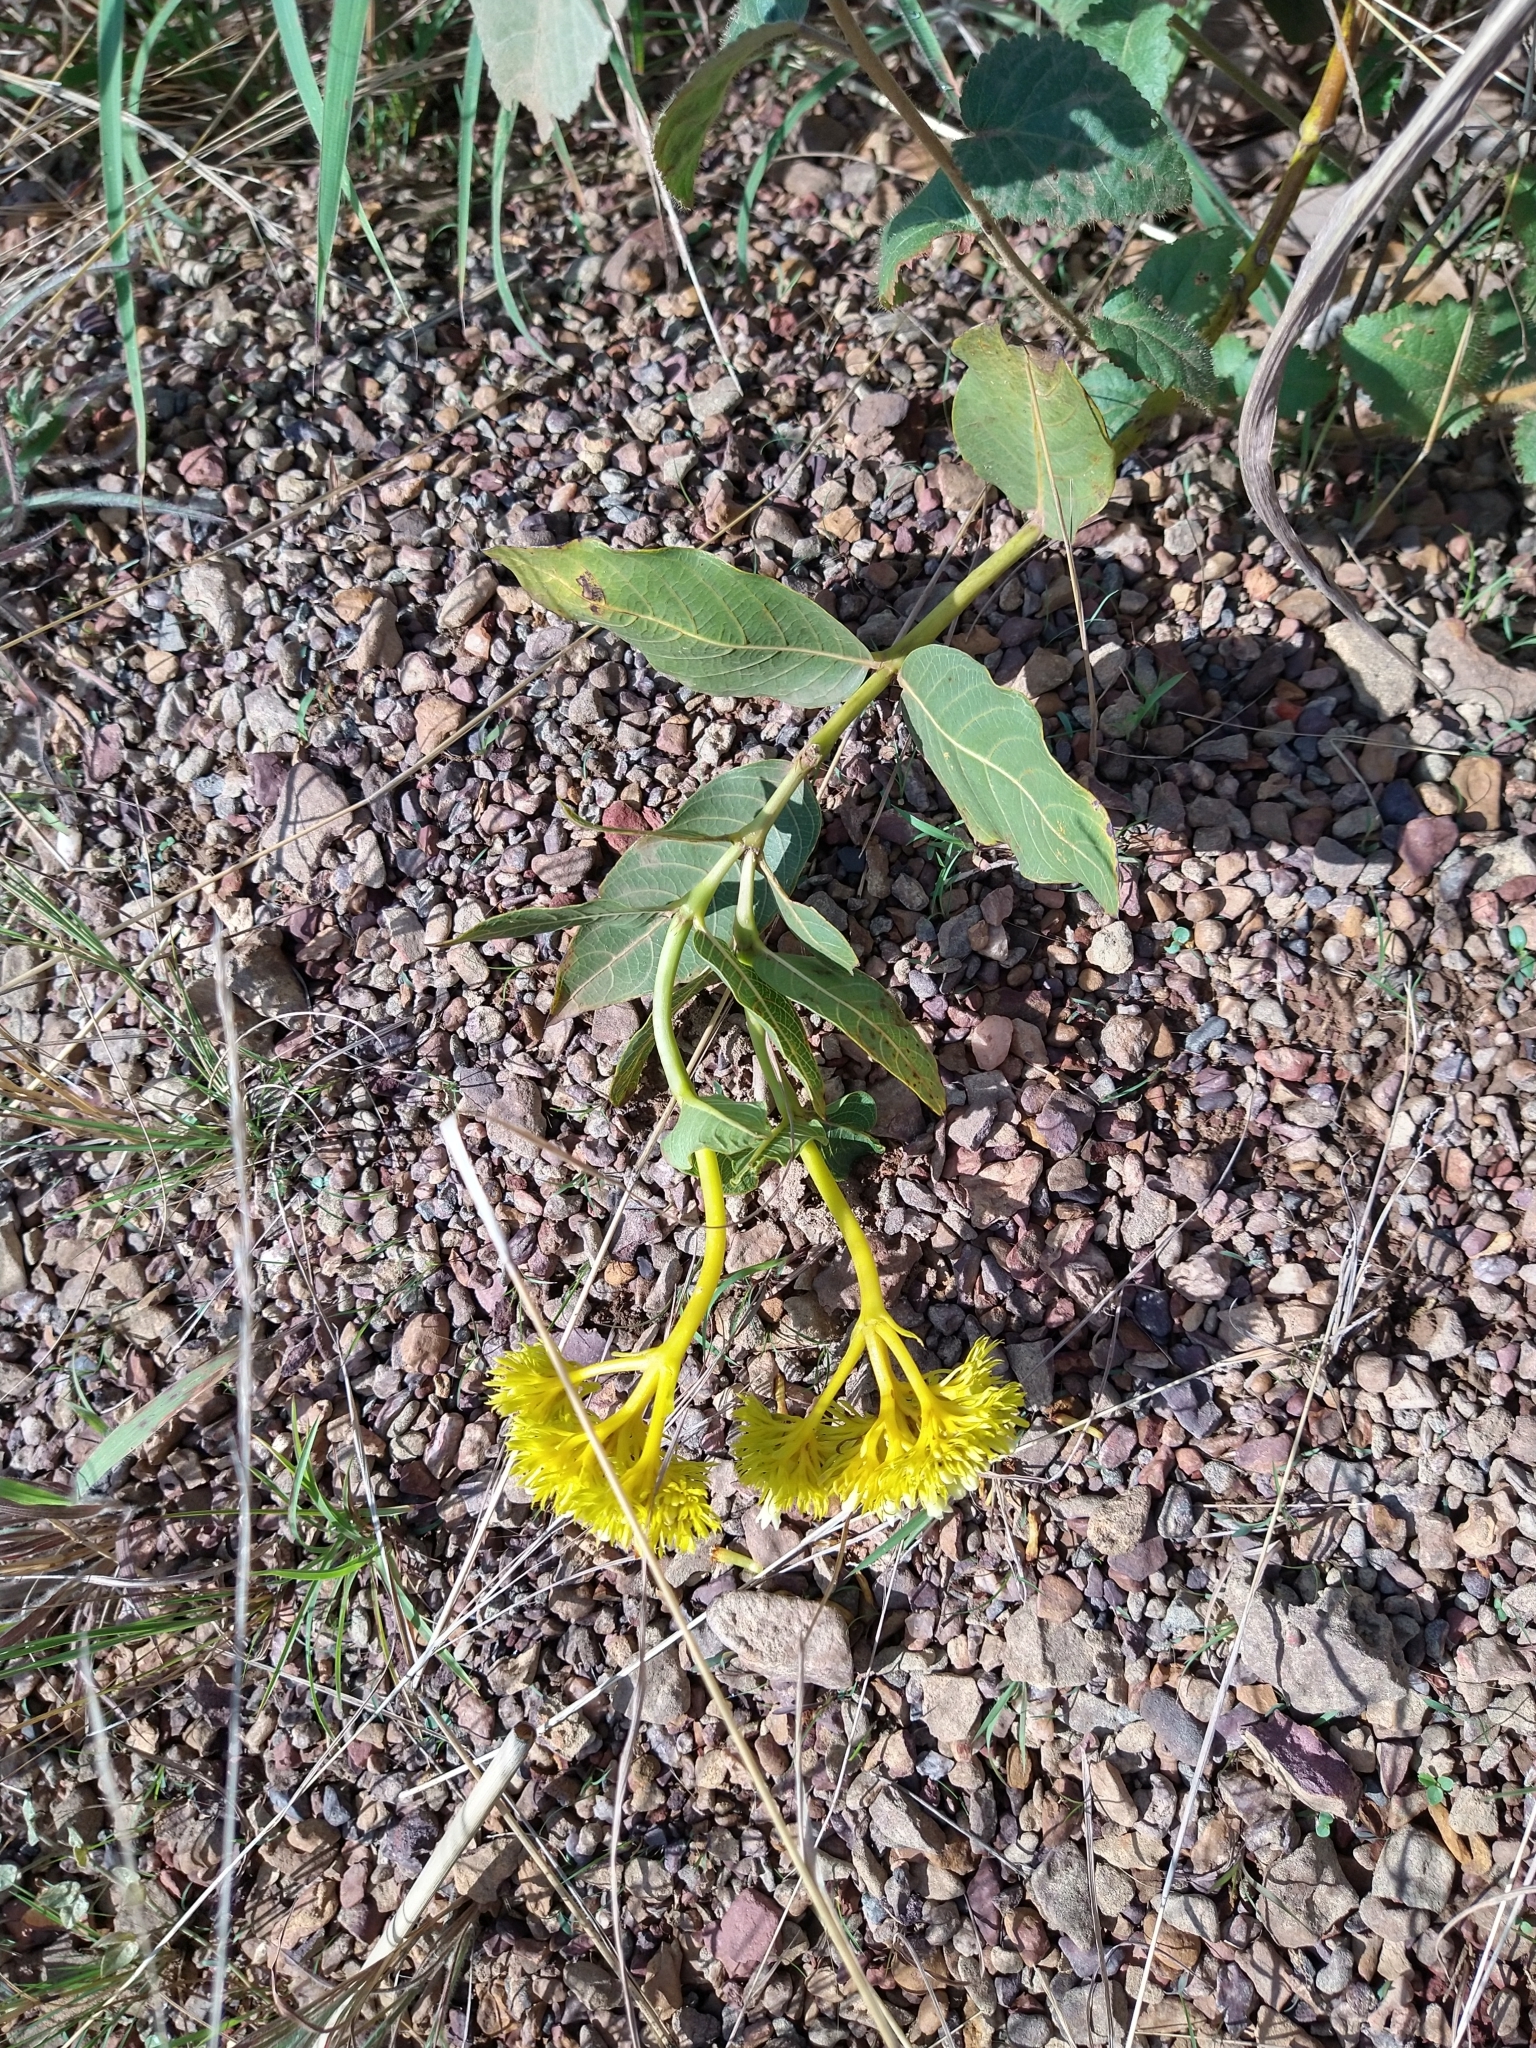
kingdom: Plantae
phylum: Tracheophyta
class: Magnoliopsida
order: Gentianales
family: Rubiaceae
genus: Palicourea
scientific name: Palicourea coriacea
